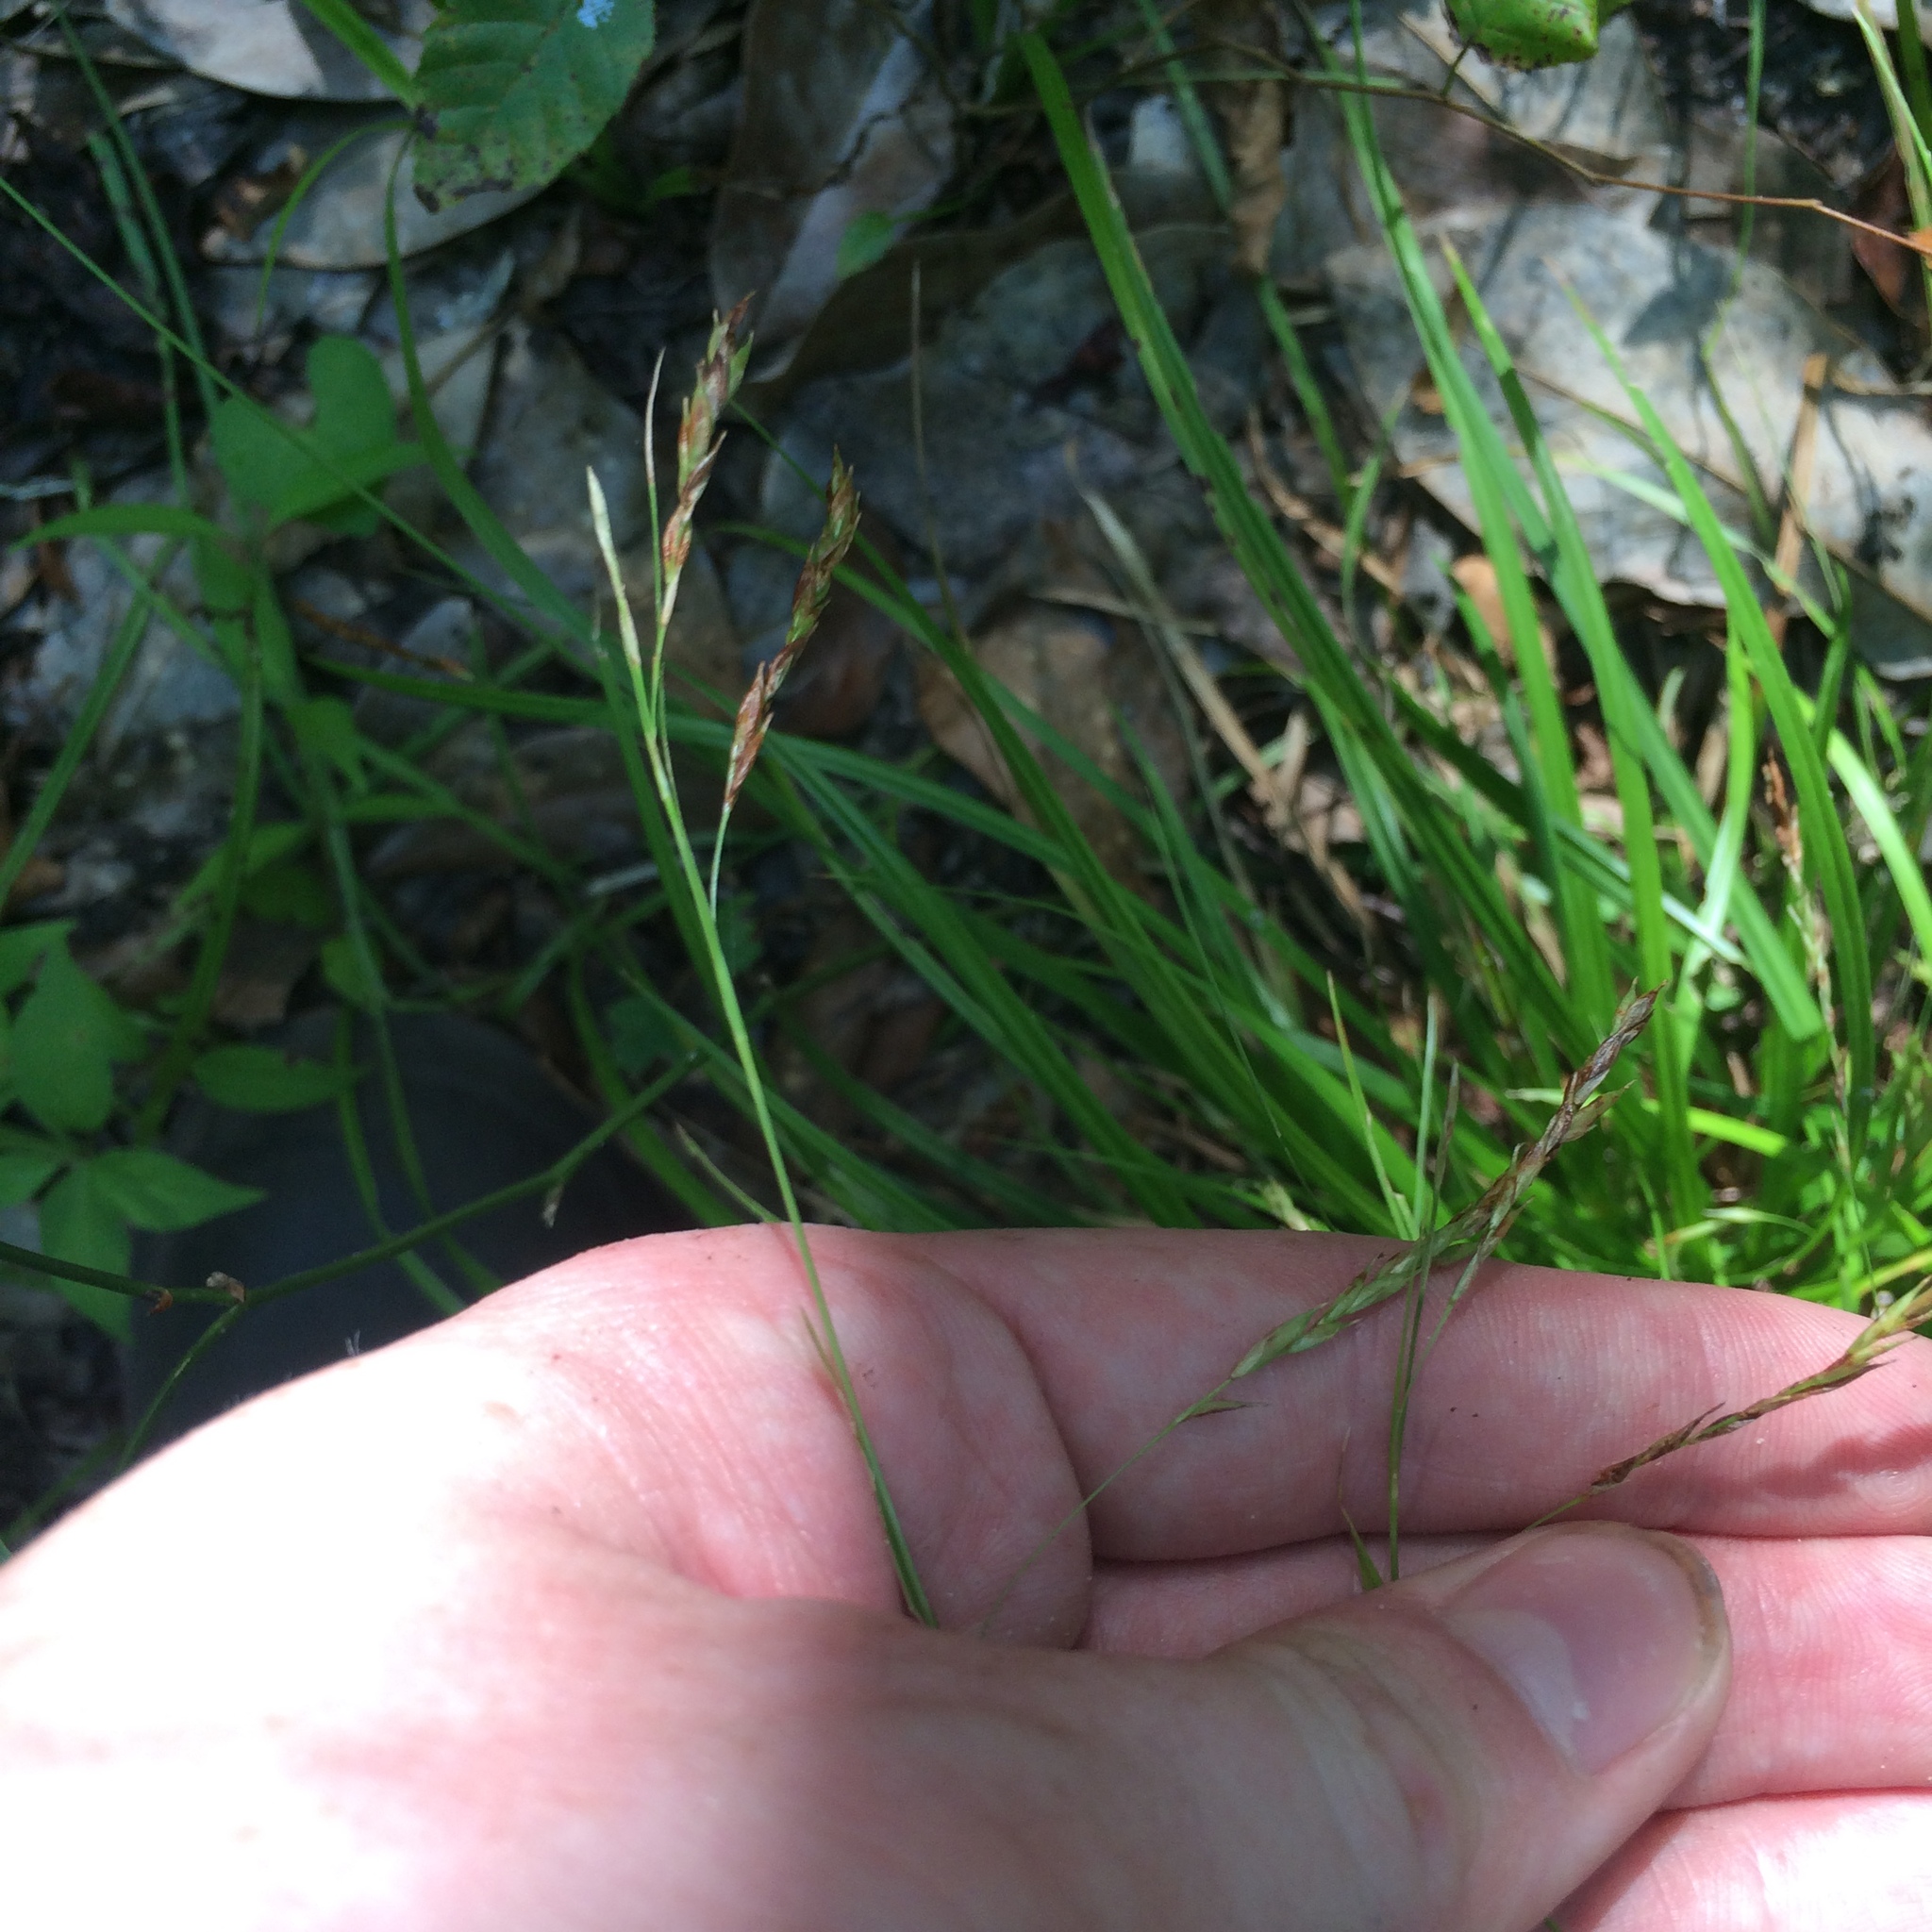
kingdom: Plantae
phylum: Tracheophyta
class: Liliopsida
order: Poales
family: Cyperaceae
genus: Carex
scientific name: Carex debilis
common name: White-edge sedge
